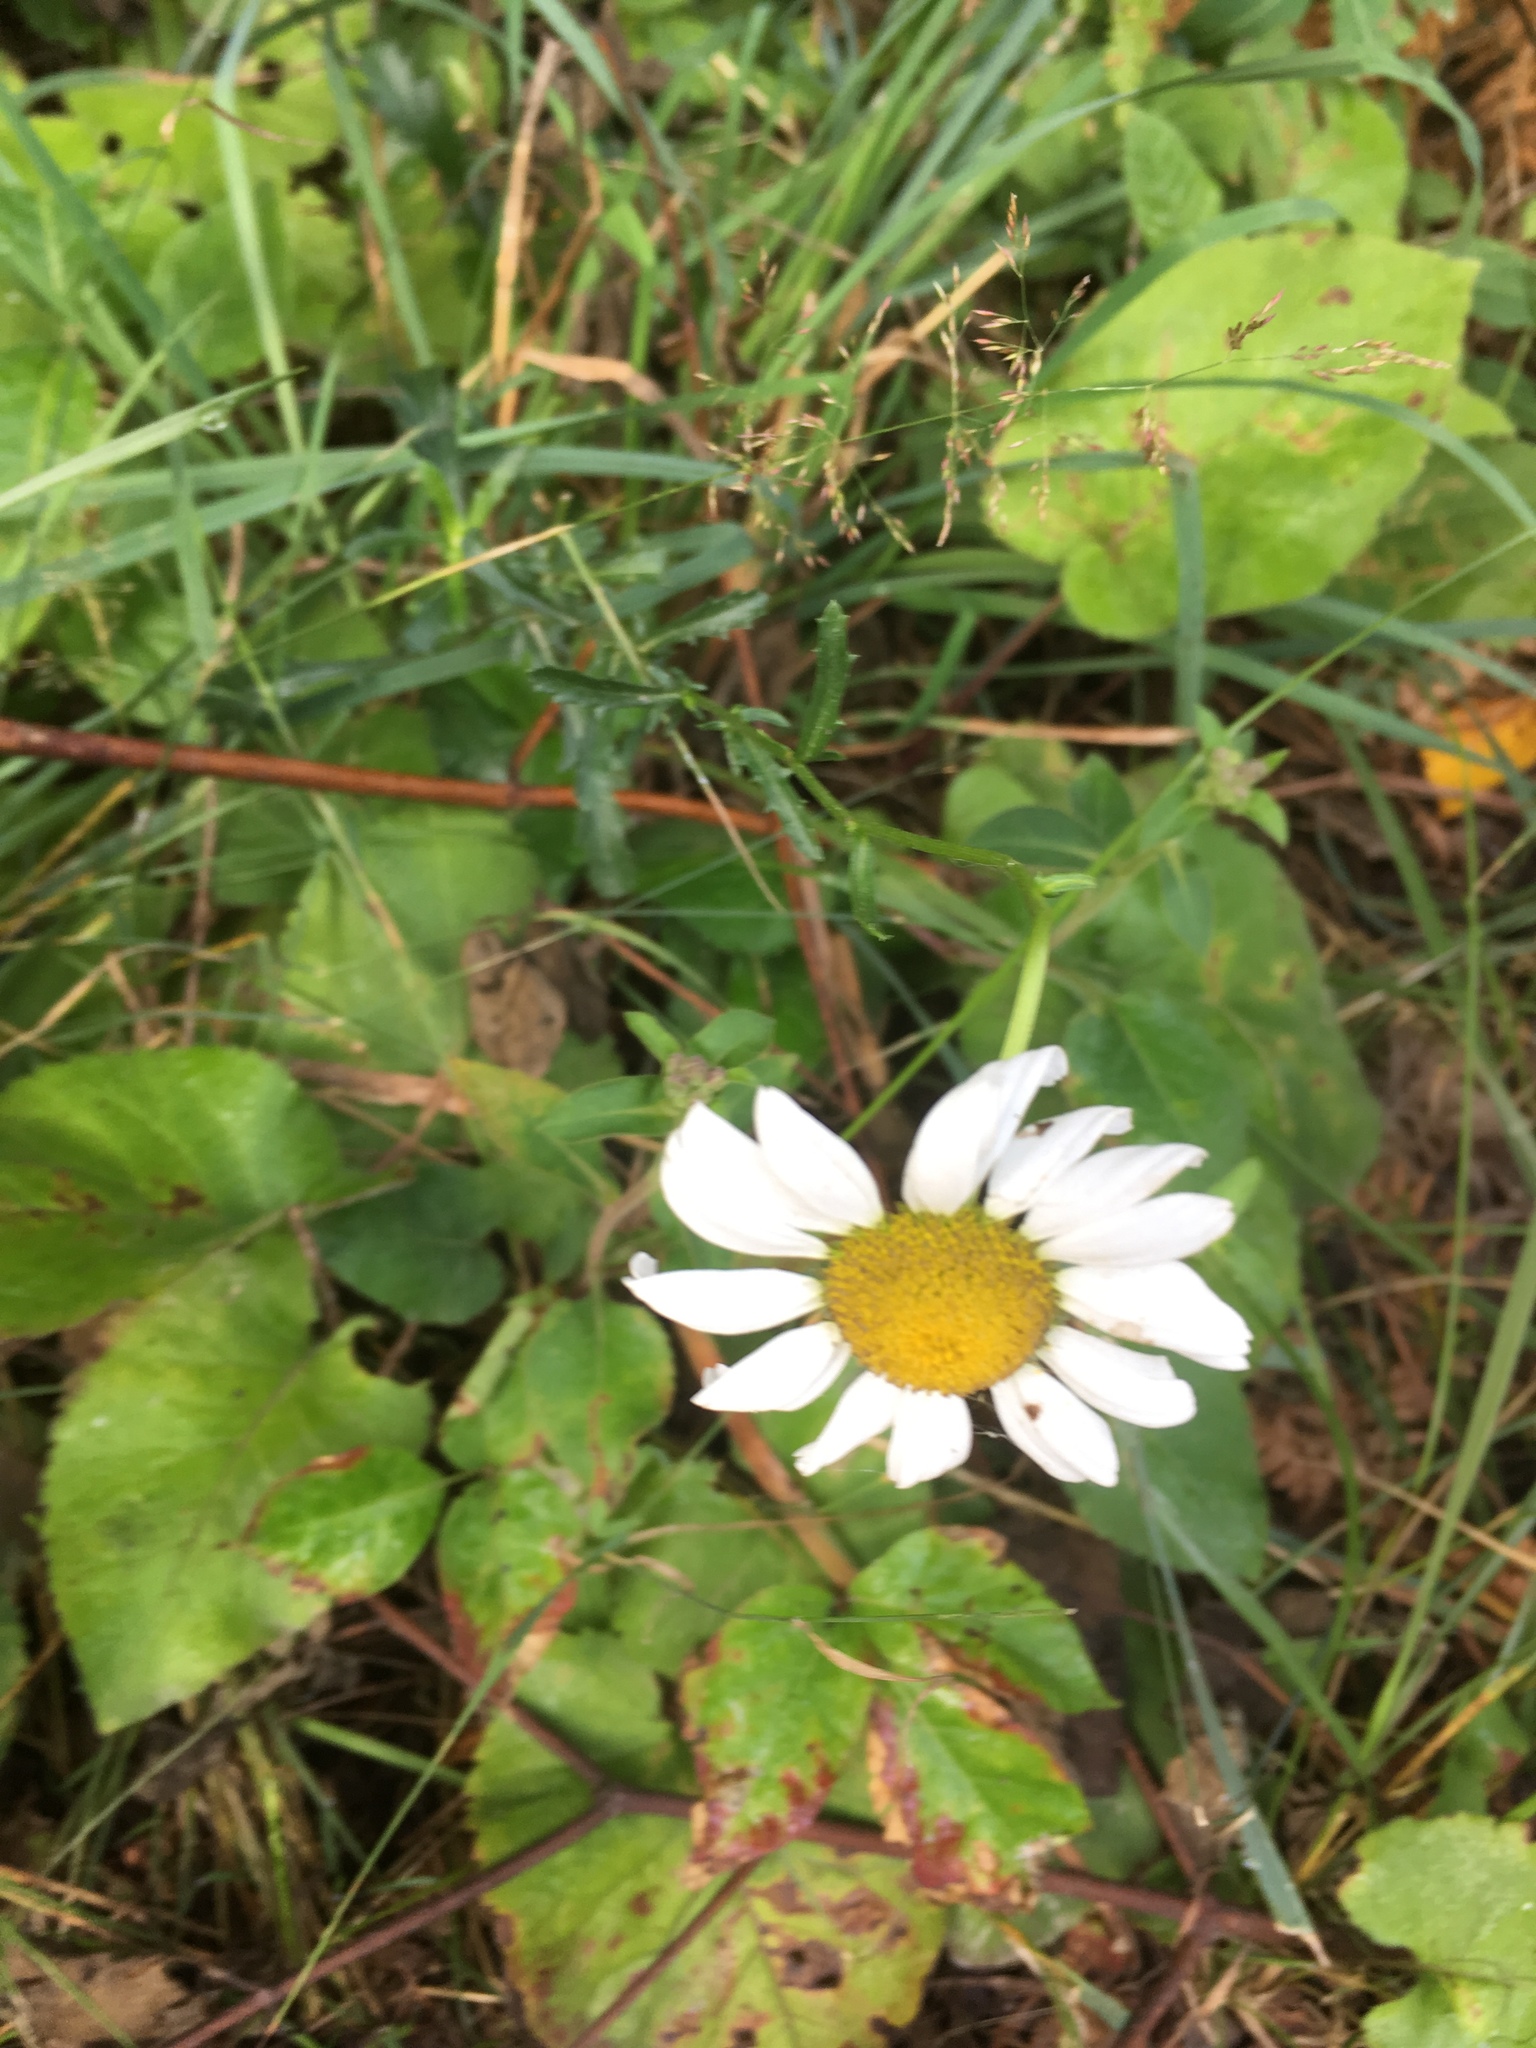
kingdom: Plantae
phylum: Tracheophyta
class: Magnoliopsida
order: Asterales
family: Asteraceae
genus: Leucanthemum
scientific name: Leucanthemum vulgare
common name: Oxeye daisy
